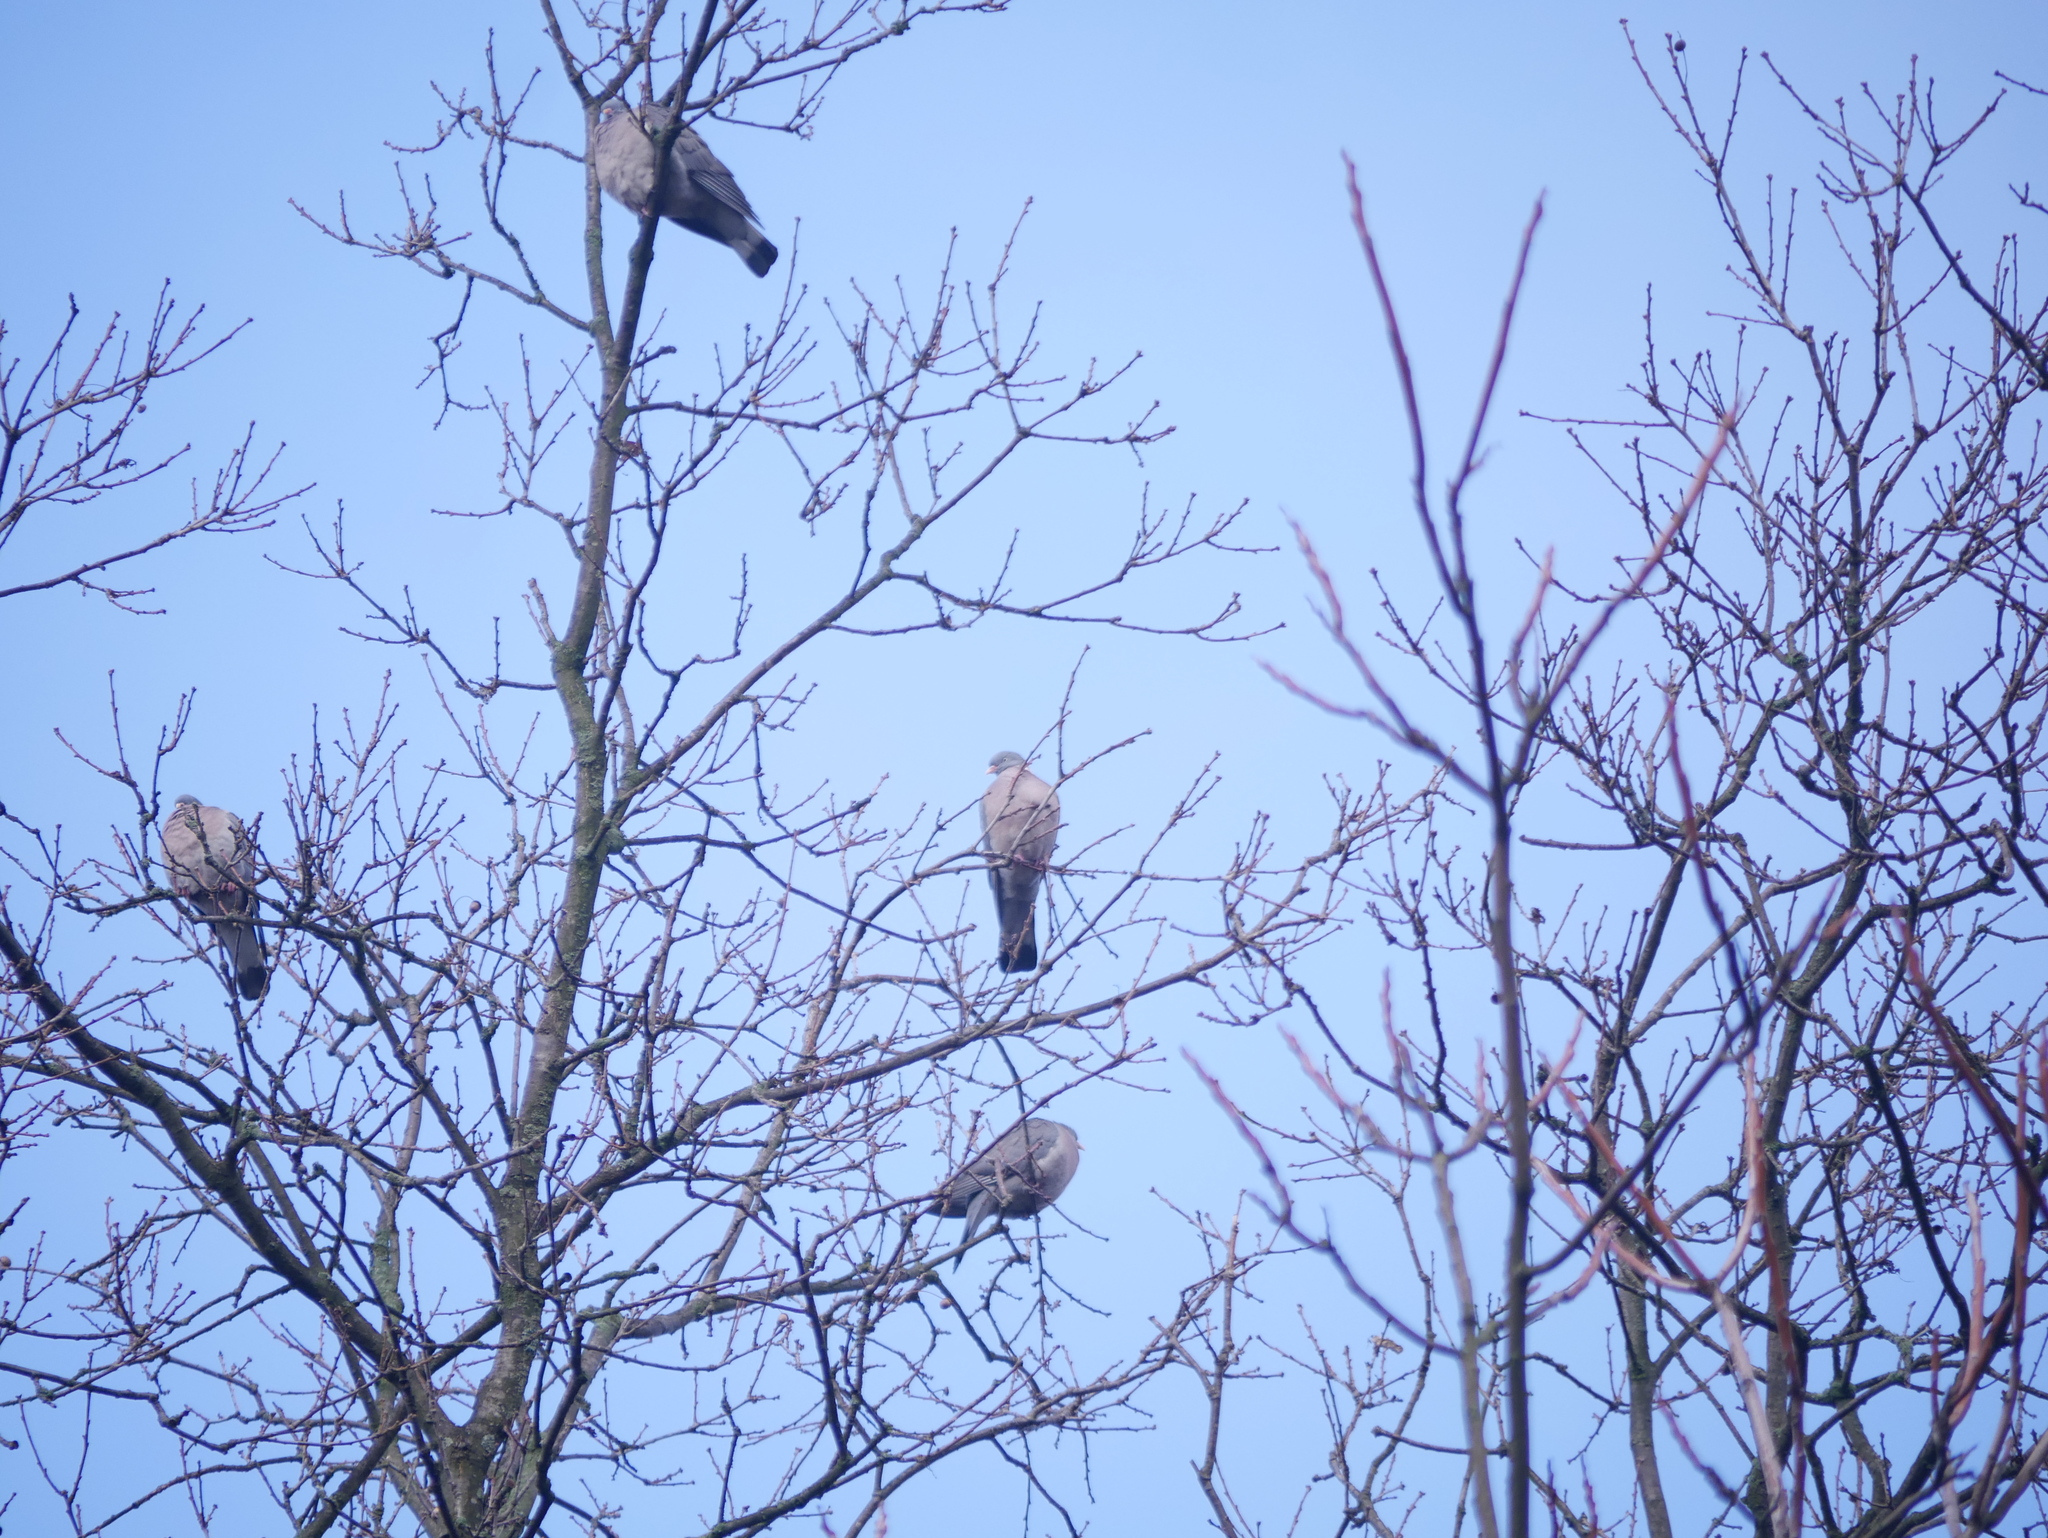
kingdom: Animalia
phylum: Chordata
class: Aves
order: Columbiformes
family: Columbidae
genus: Columba
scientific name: Columba palumbus
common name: Common wood pigeon
